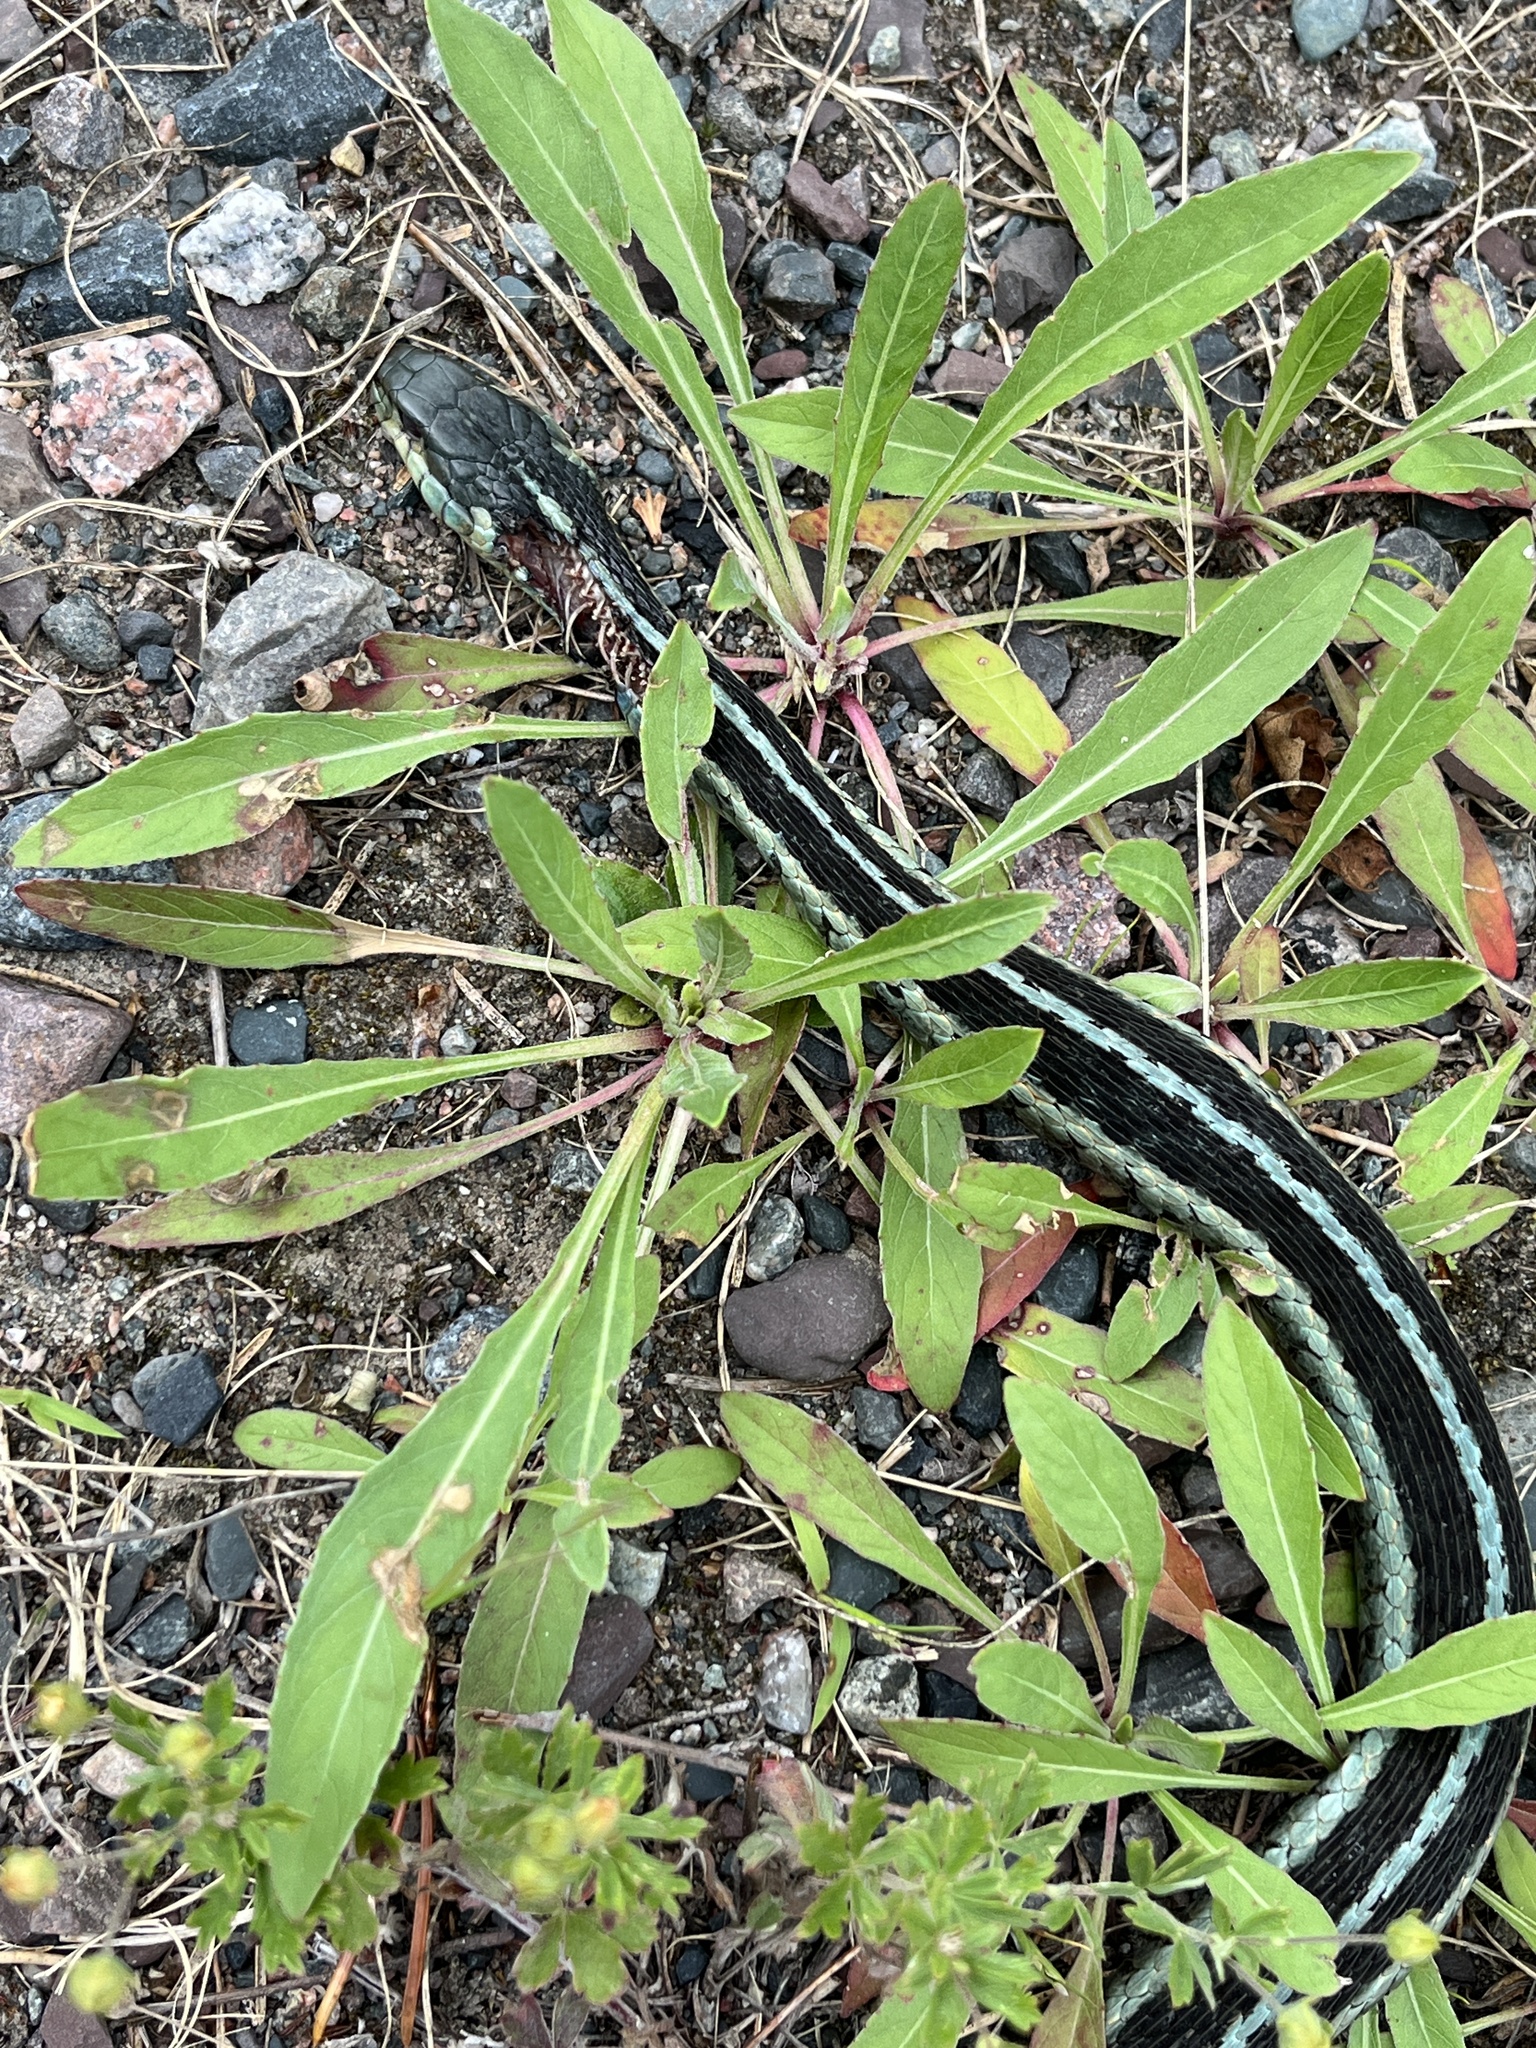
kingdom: Animalia
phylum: Chordata
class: Squamata
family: Colubridae
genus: Thamnophis
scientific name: Thamnophis sirtalis
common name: Common garter snake
